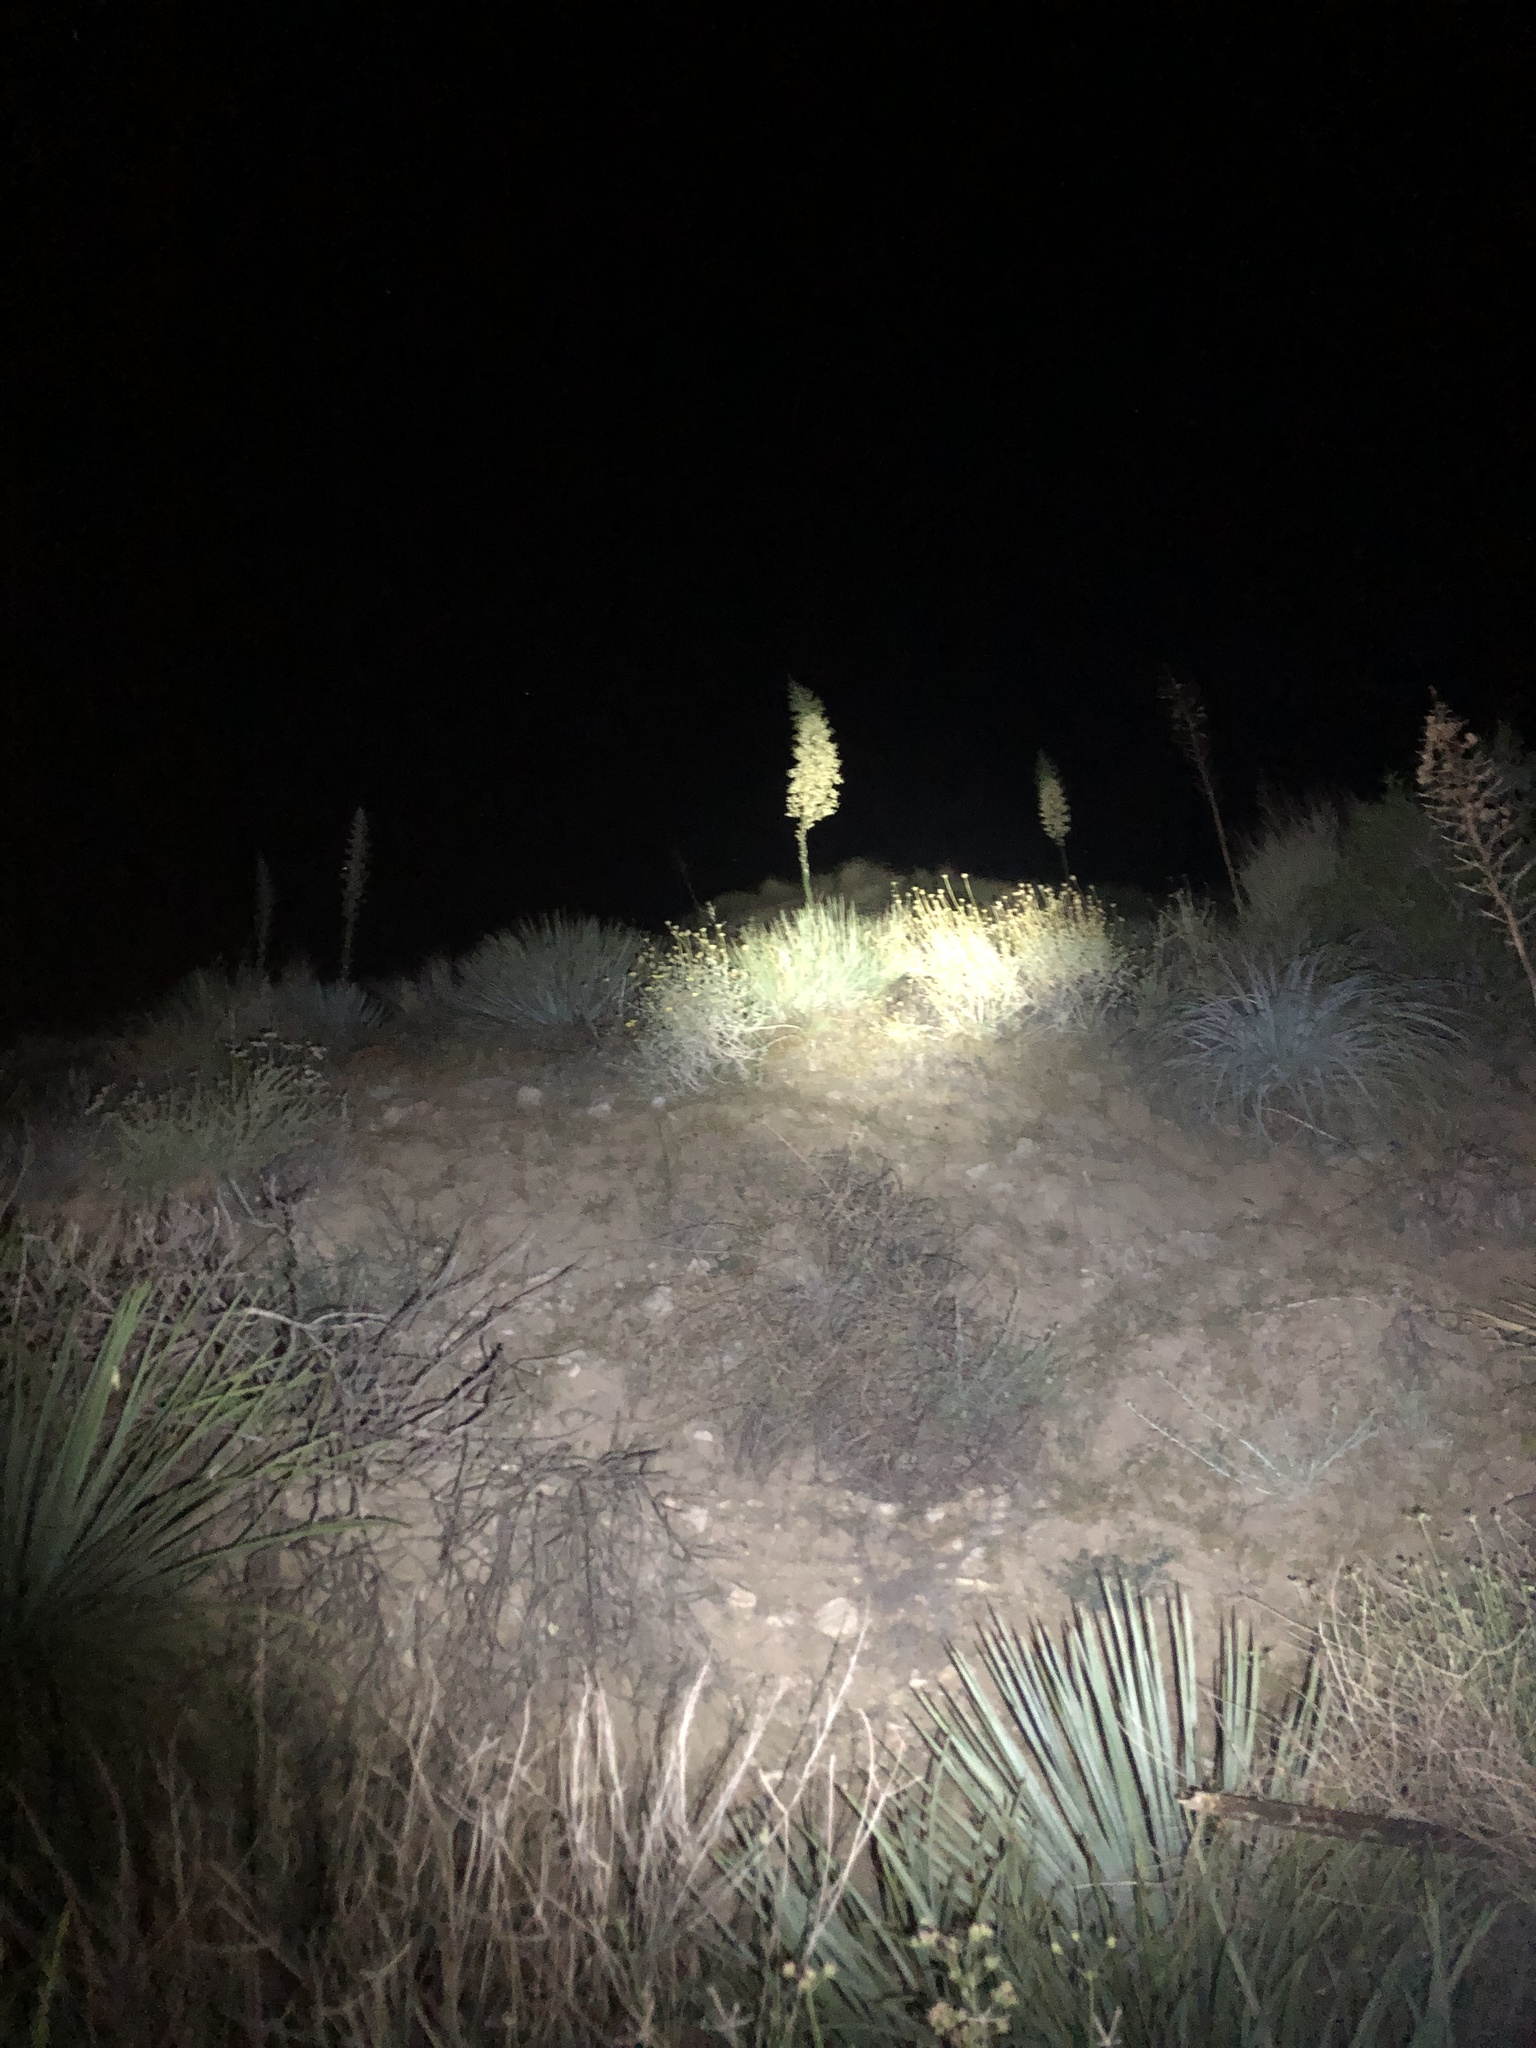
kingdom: Plantae
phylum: Tracheophyta
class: Liliopsida
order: Asparagales
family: Asparagaceae
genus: Hesperoyucca
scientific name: Hesperoyucca whipplei
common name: Our lord's-candle
